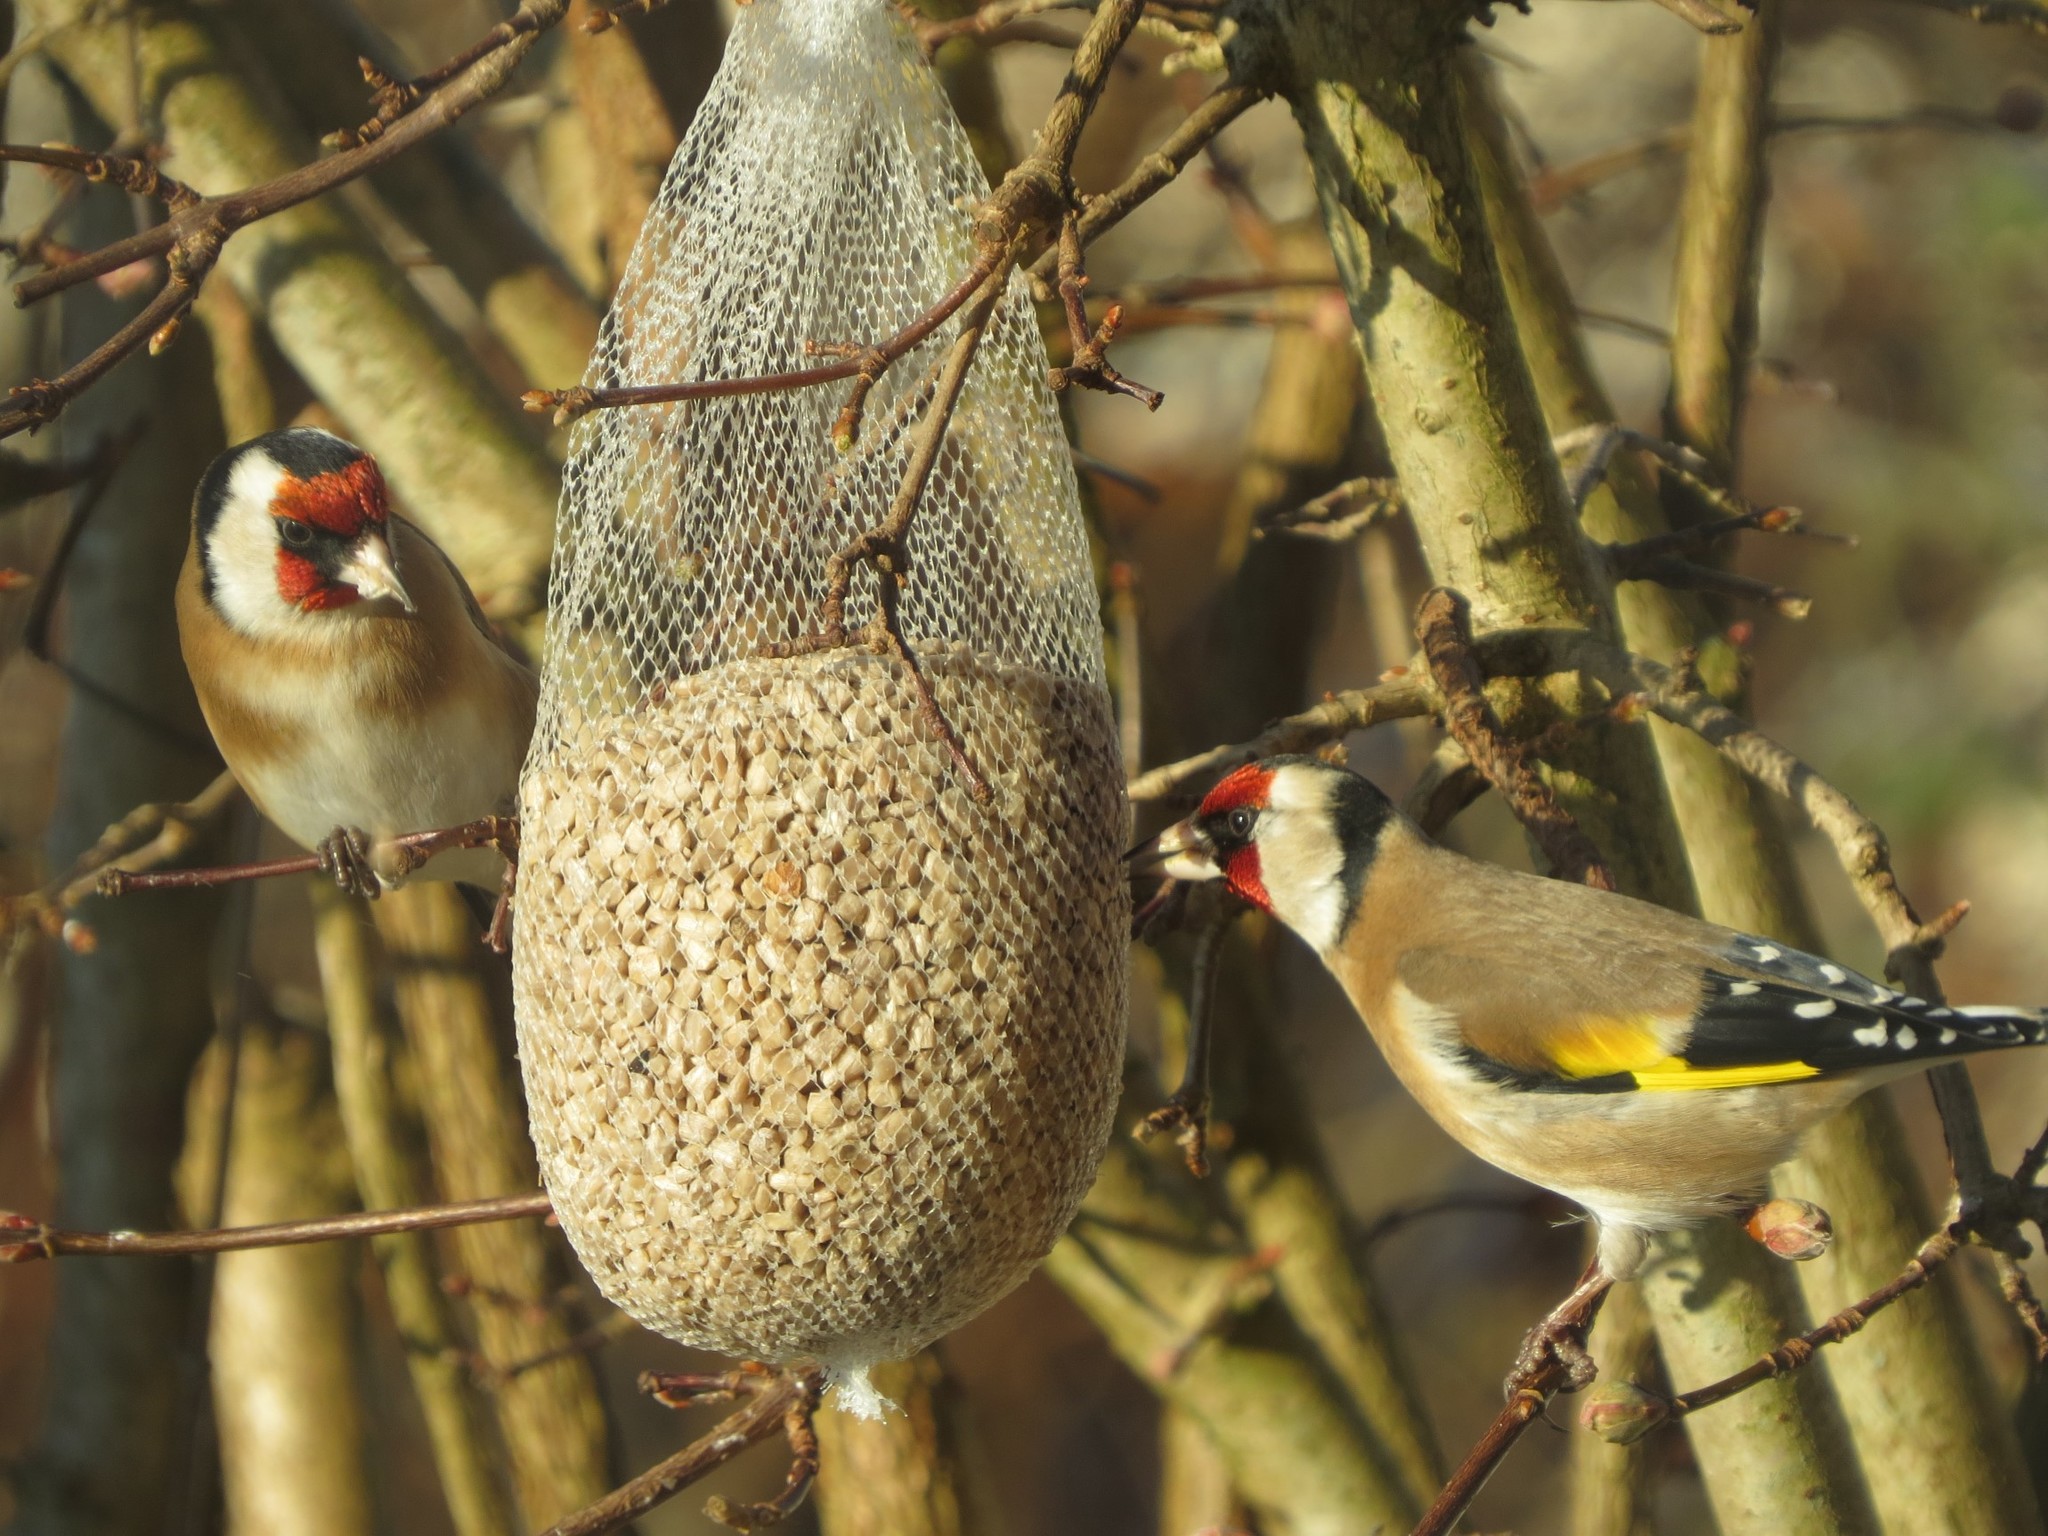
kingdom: Animalia
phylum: Chordata
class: Aves
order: Passeriformes
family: Fringillidae
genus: Carduelis
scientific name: Carduelis carduelis
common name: European goldfinch
